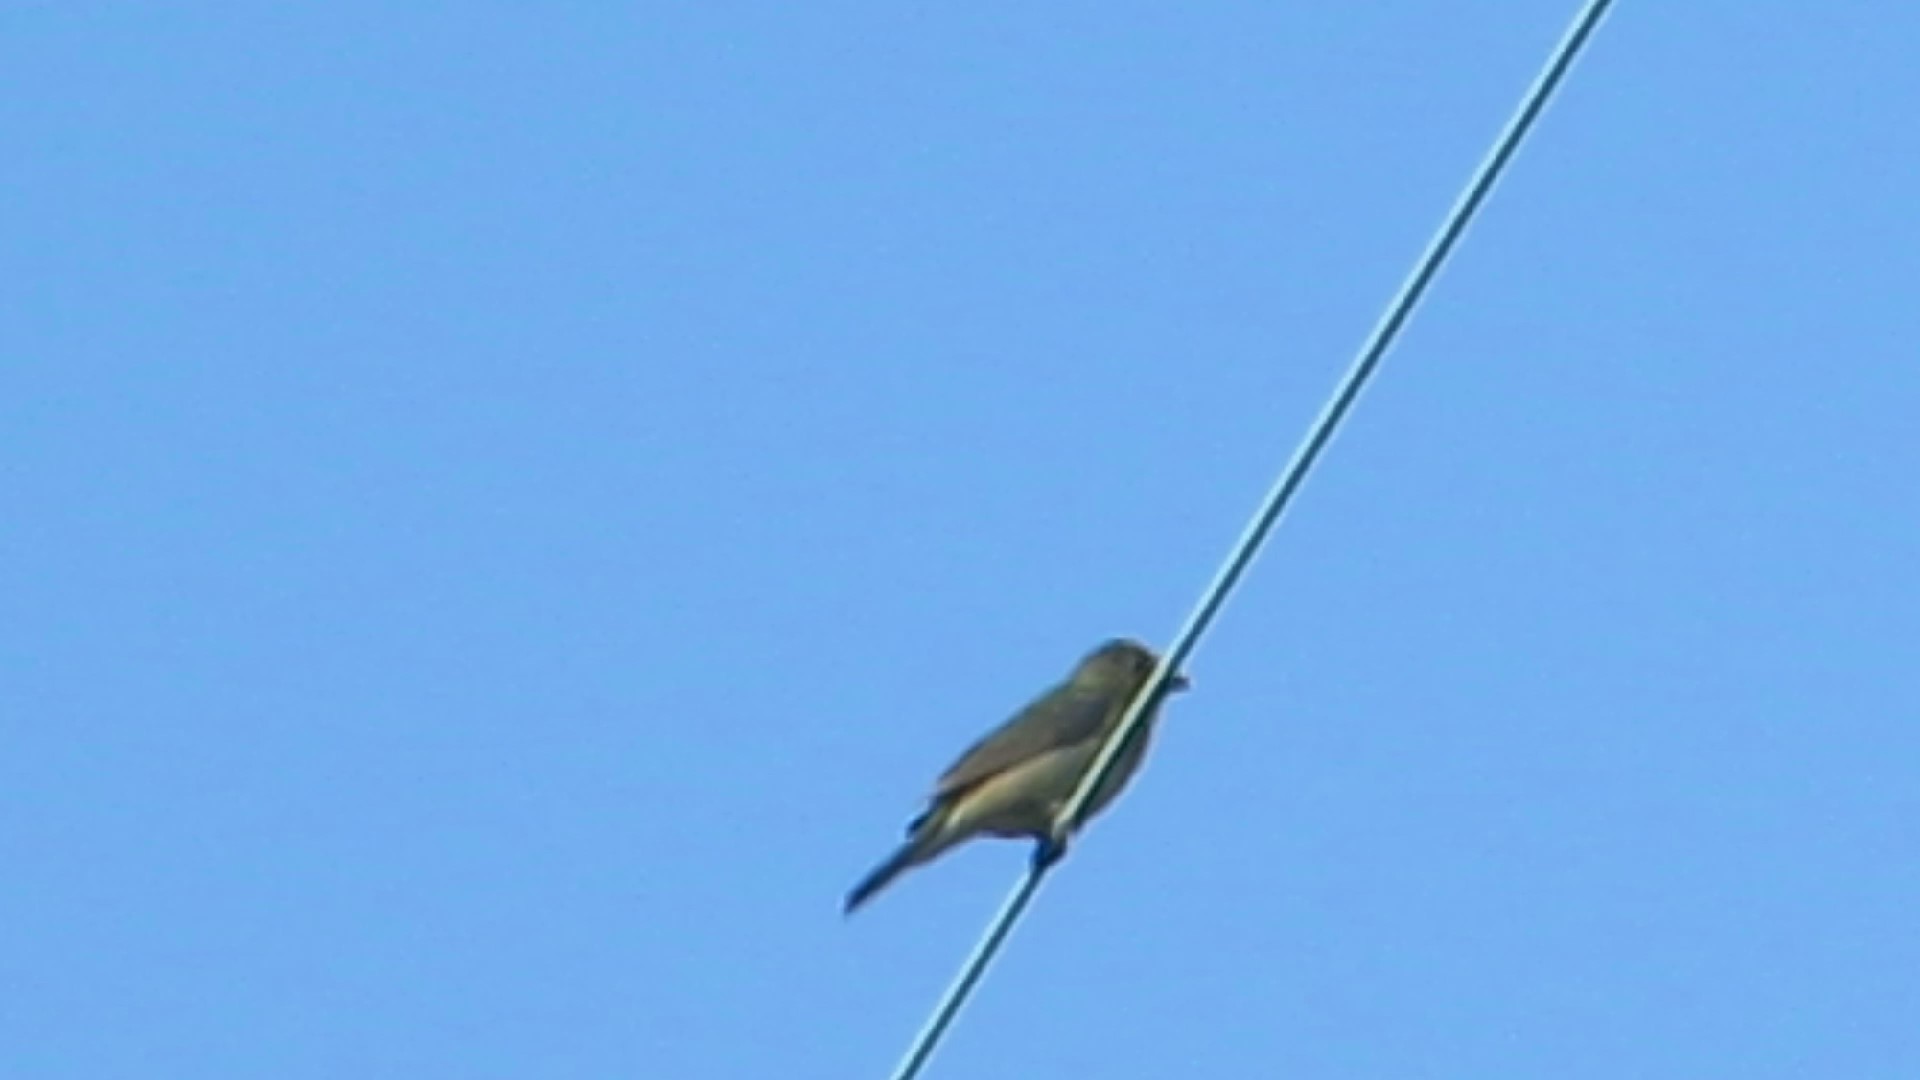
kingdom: Animalia
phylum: Chordata
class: Aves
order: Passeriformes
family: Cardinalidae
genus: Passerina
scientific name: Passerina ciris
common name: Painted bunting
